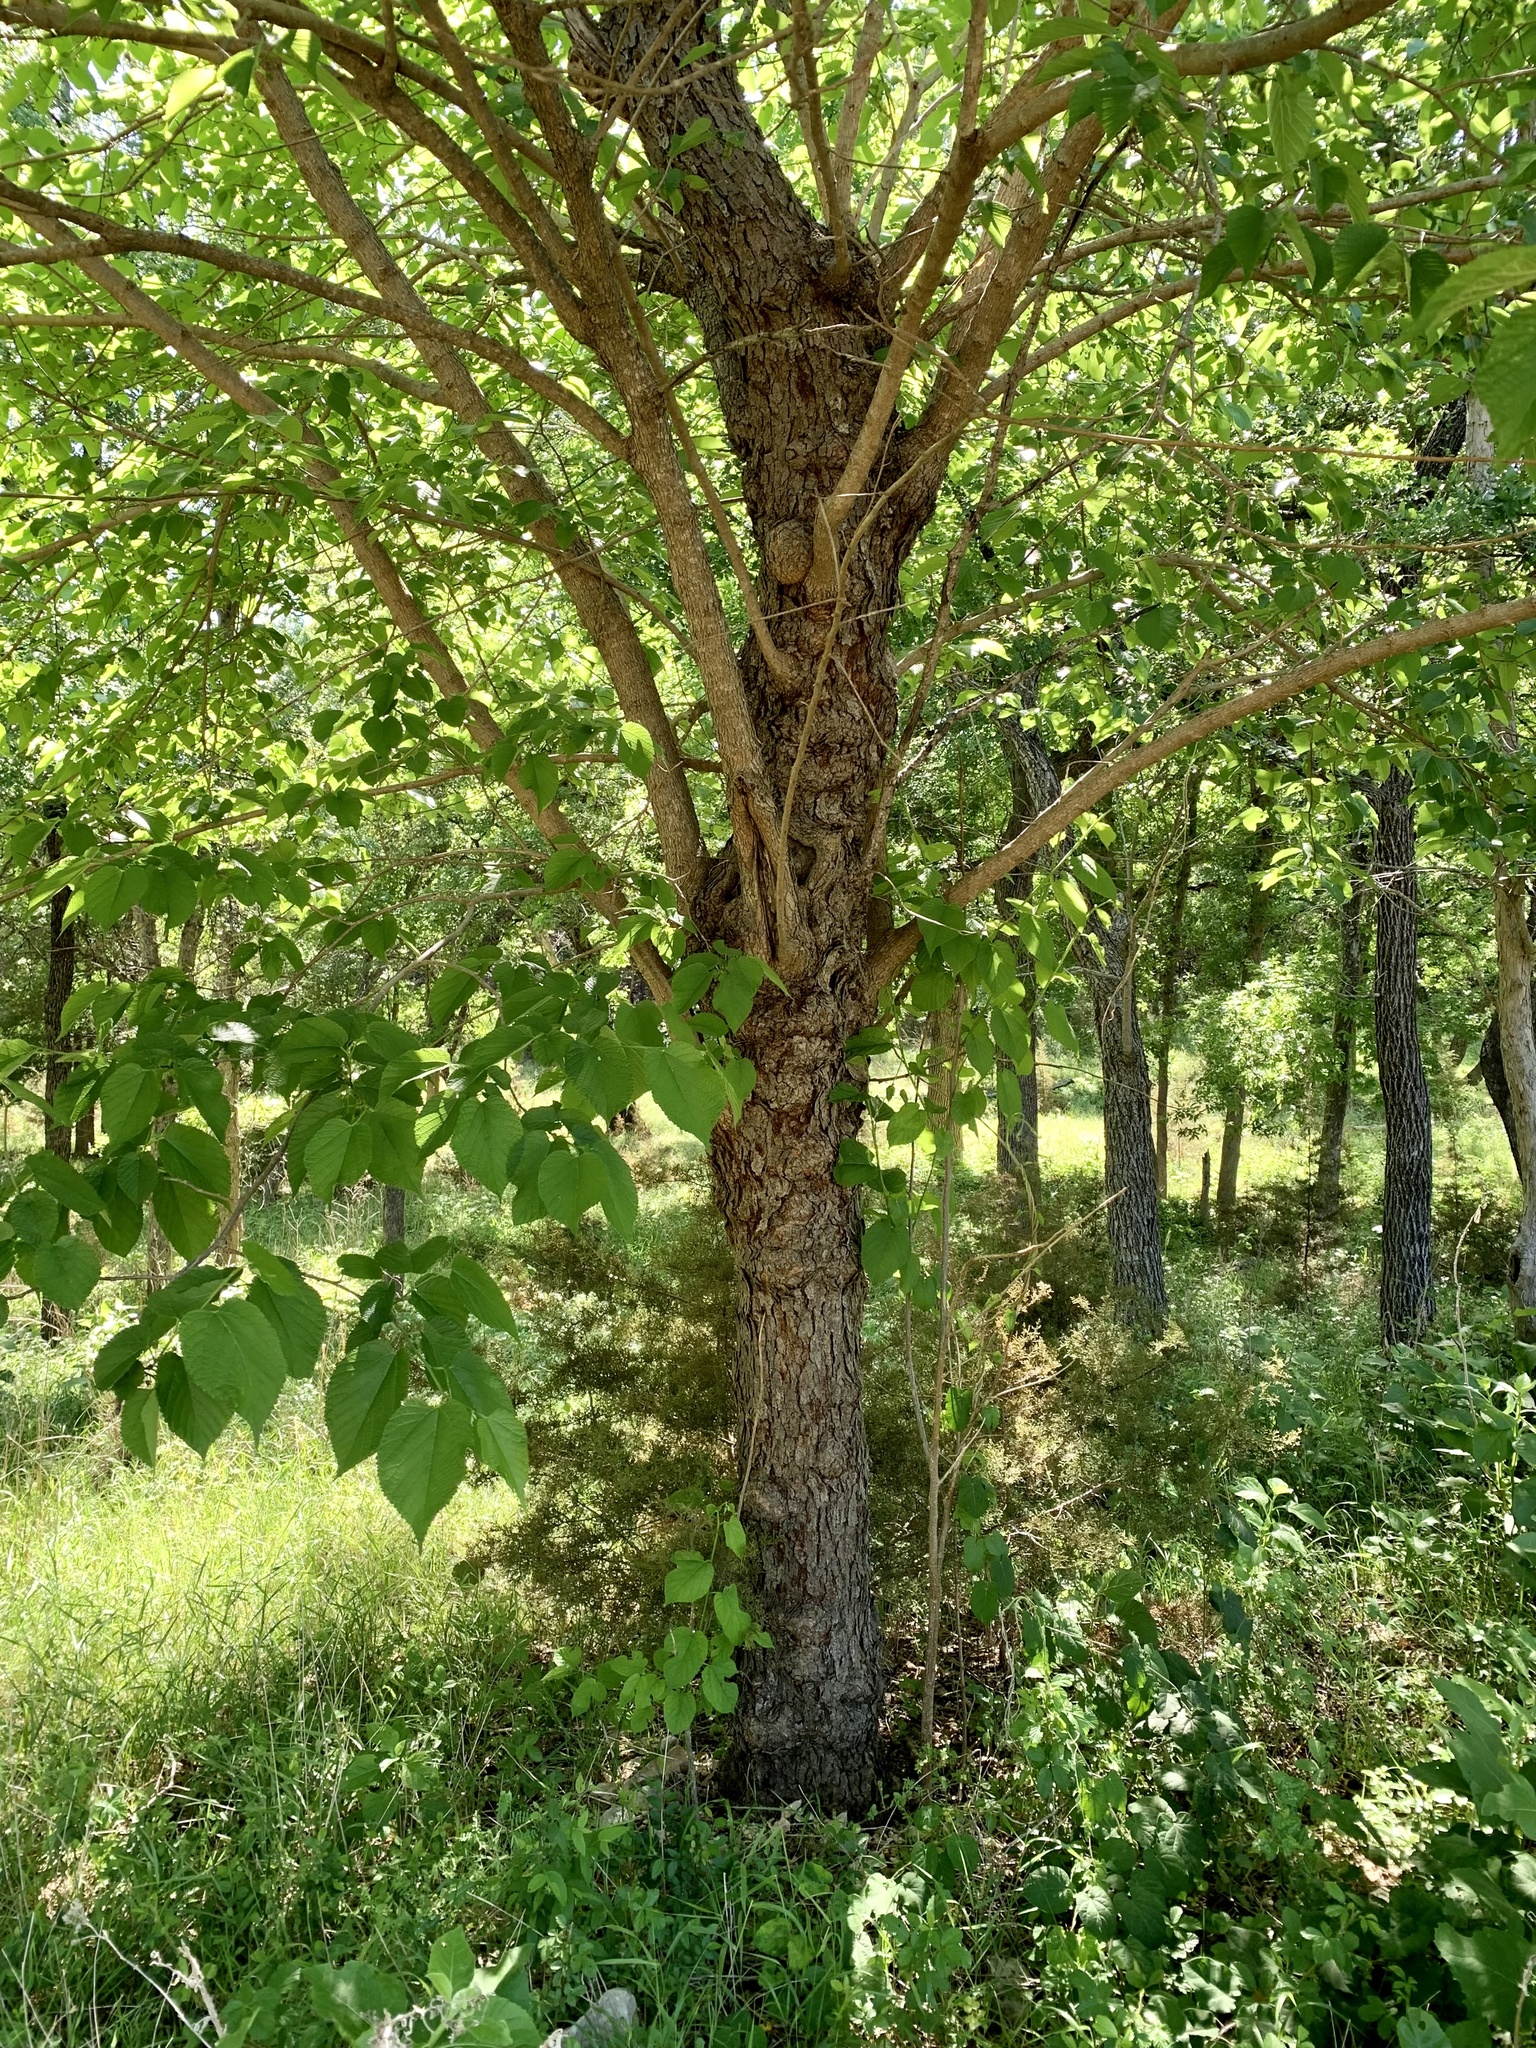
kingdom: Plantae
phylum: Tracheophyta
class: Magnoliopsida
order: Rosales
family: Moraceae
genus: Morus
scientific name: Morus rubra
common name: Red mulberry
